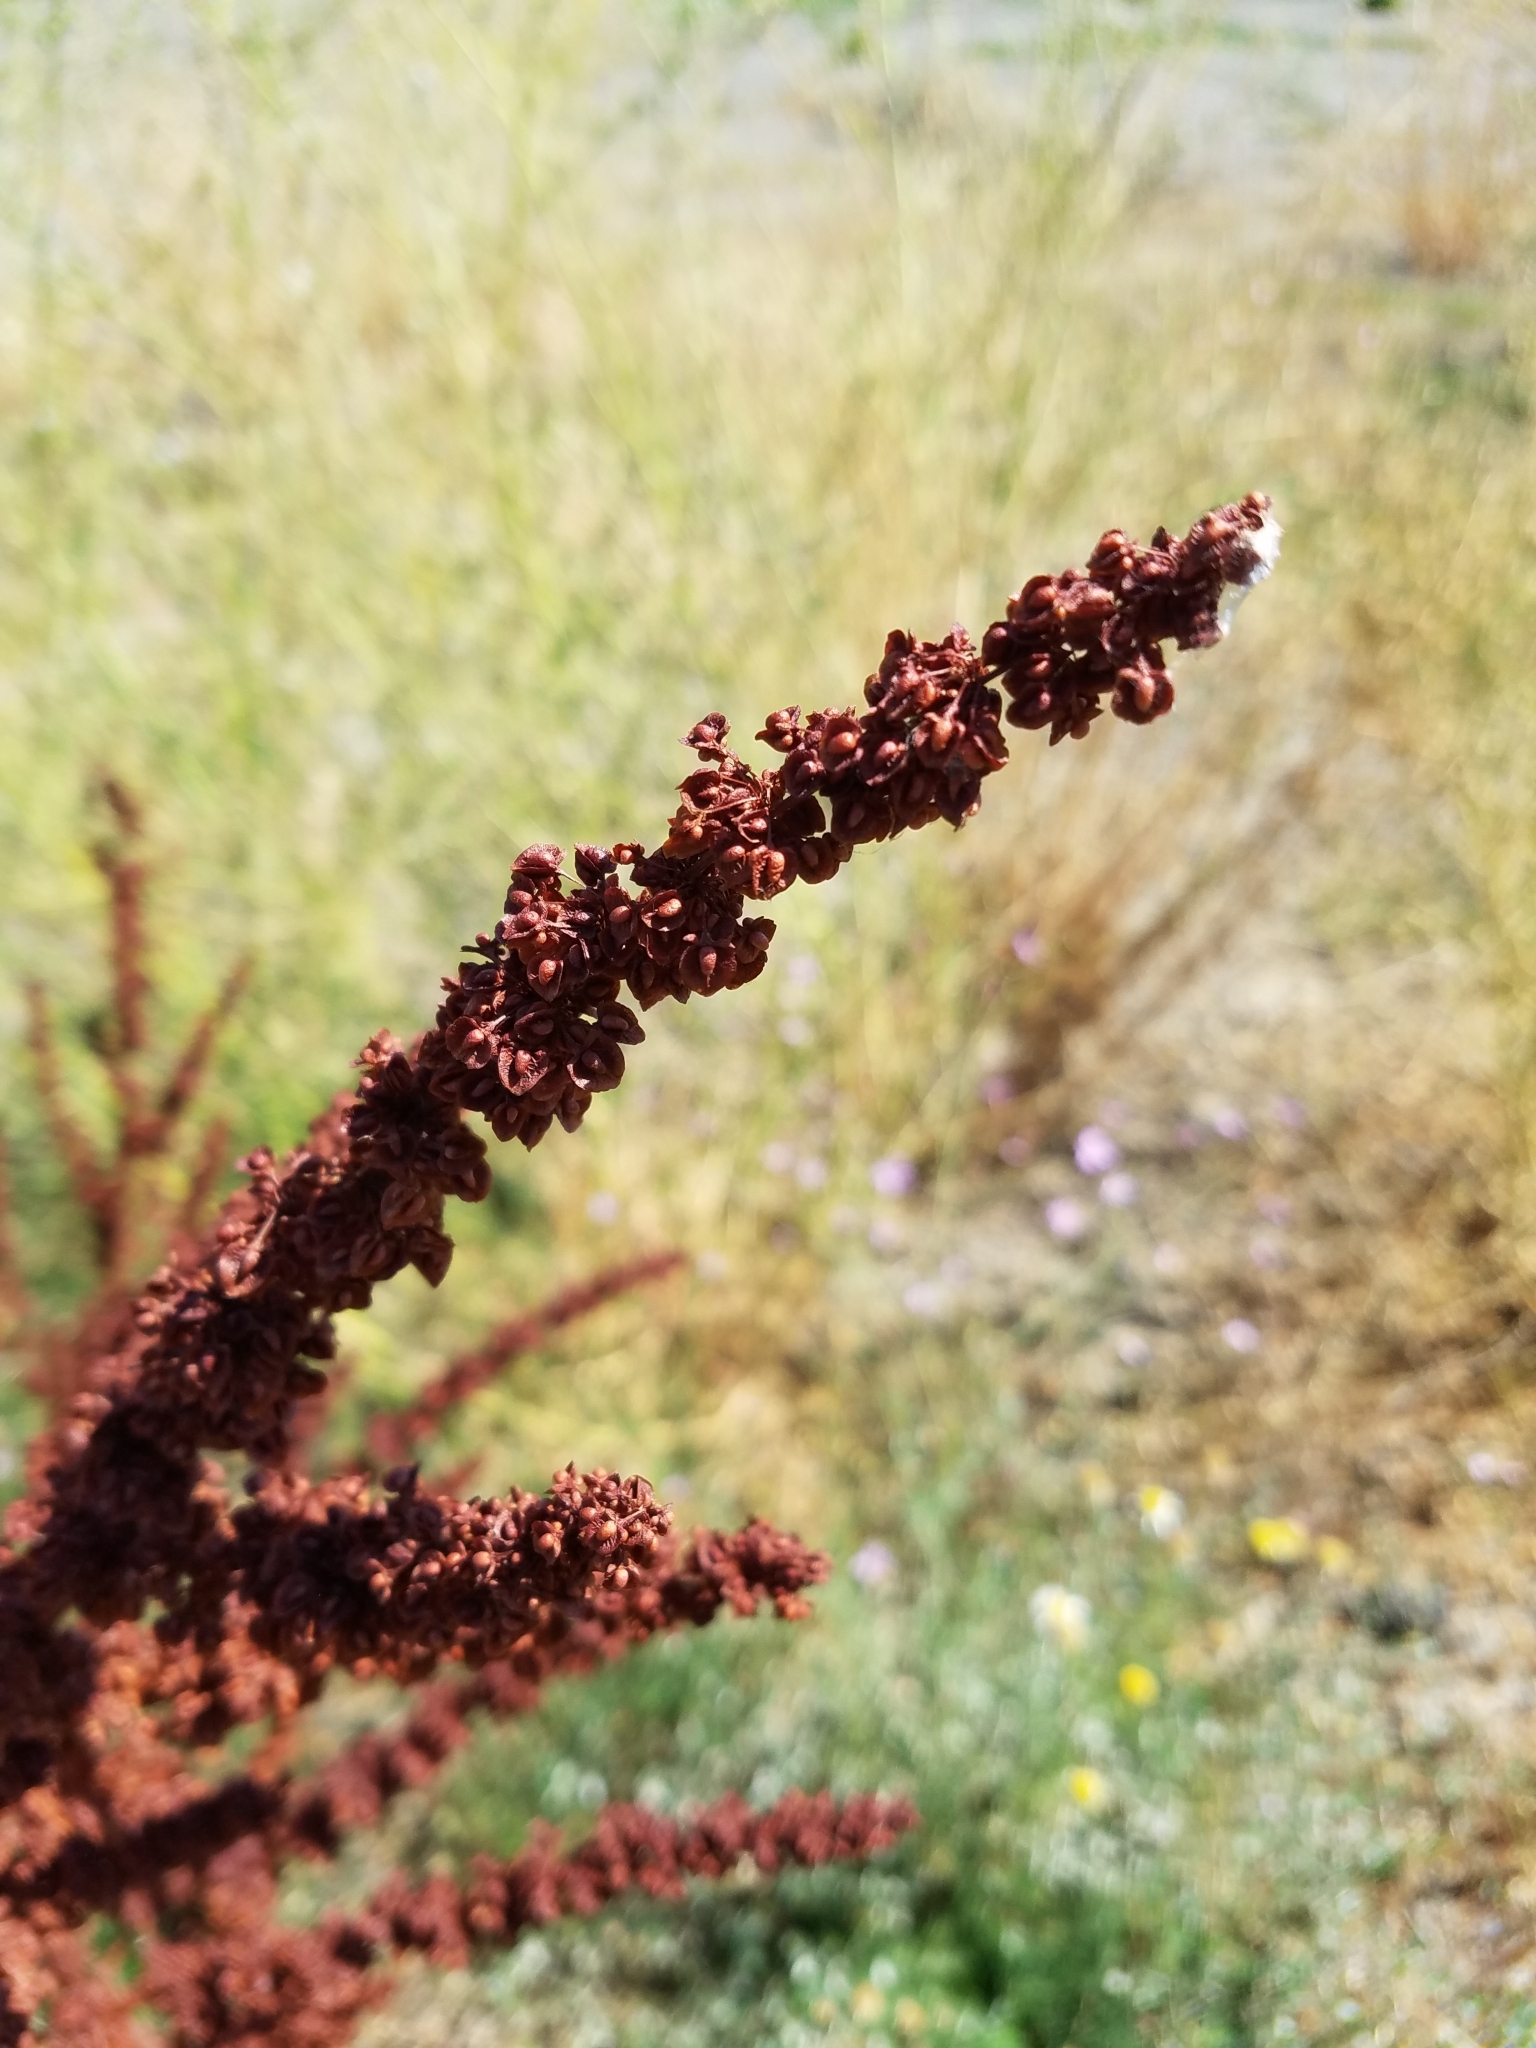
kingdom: Plantae
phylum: Tracheophyta
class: Magnoliopsida
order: Caryophyllales
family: Polygonaceae
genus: Rumex
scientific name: Rumex crispus
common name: Curled dock
